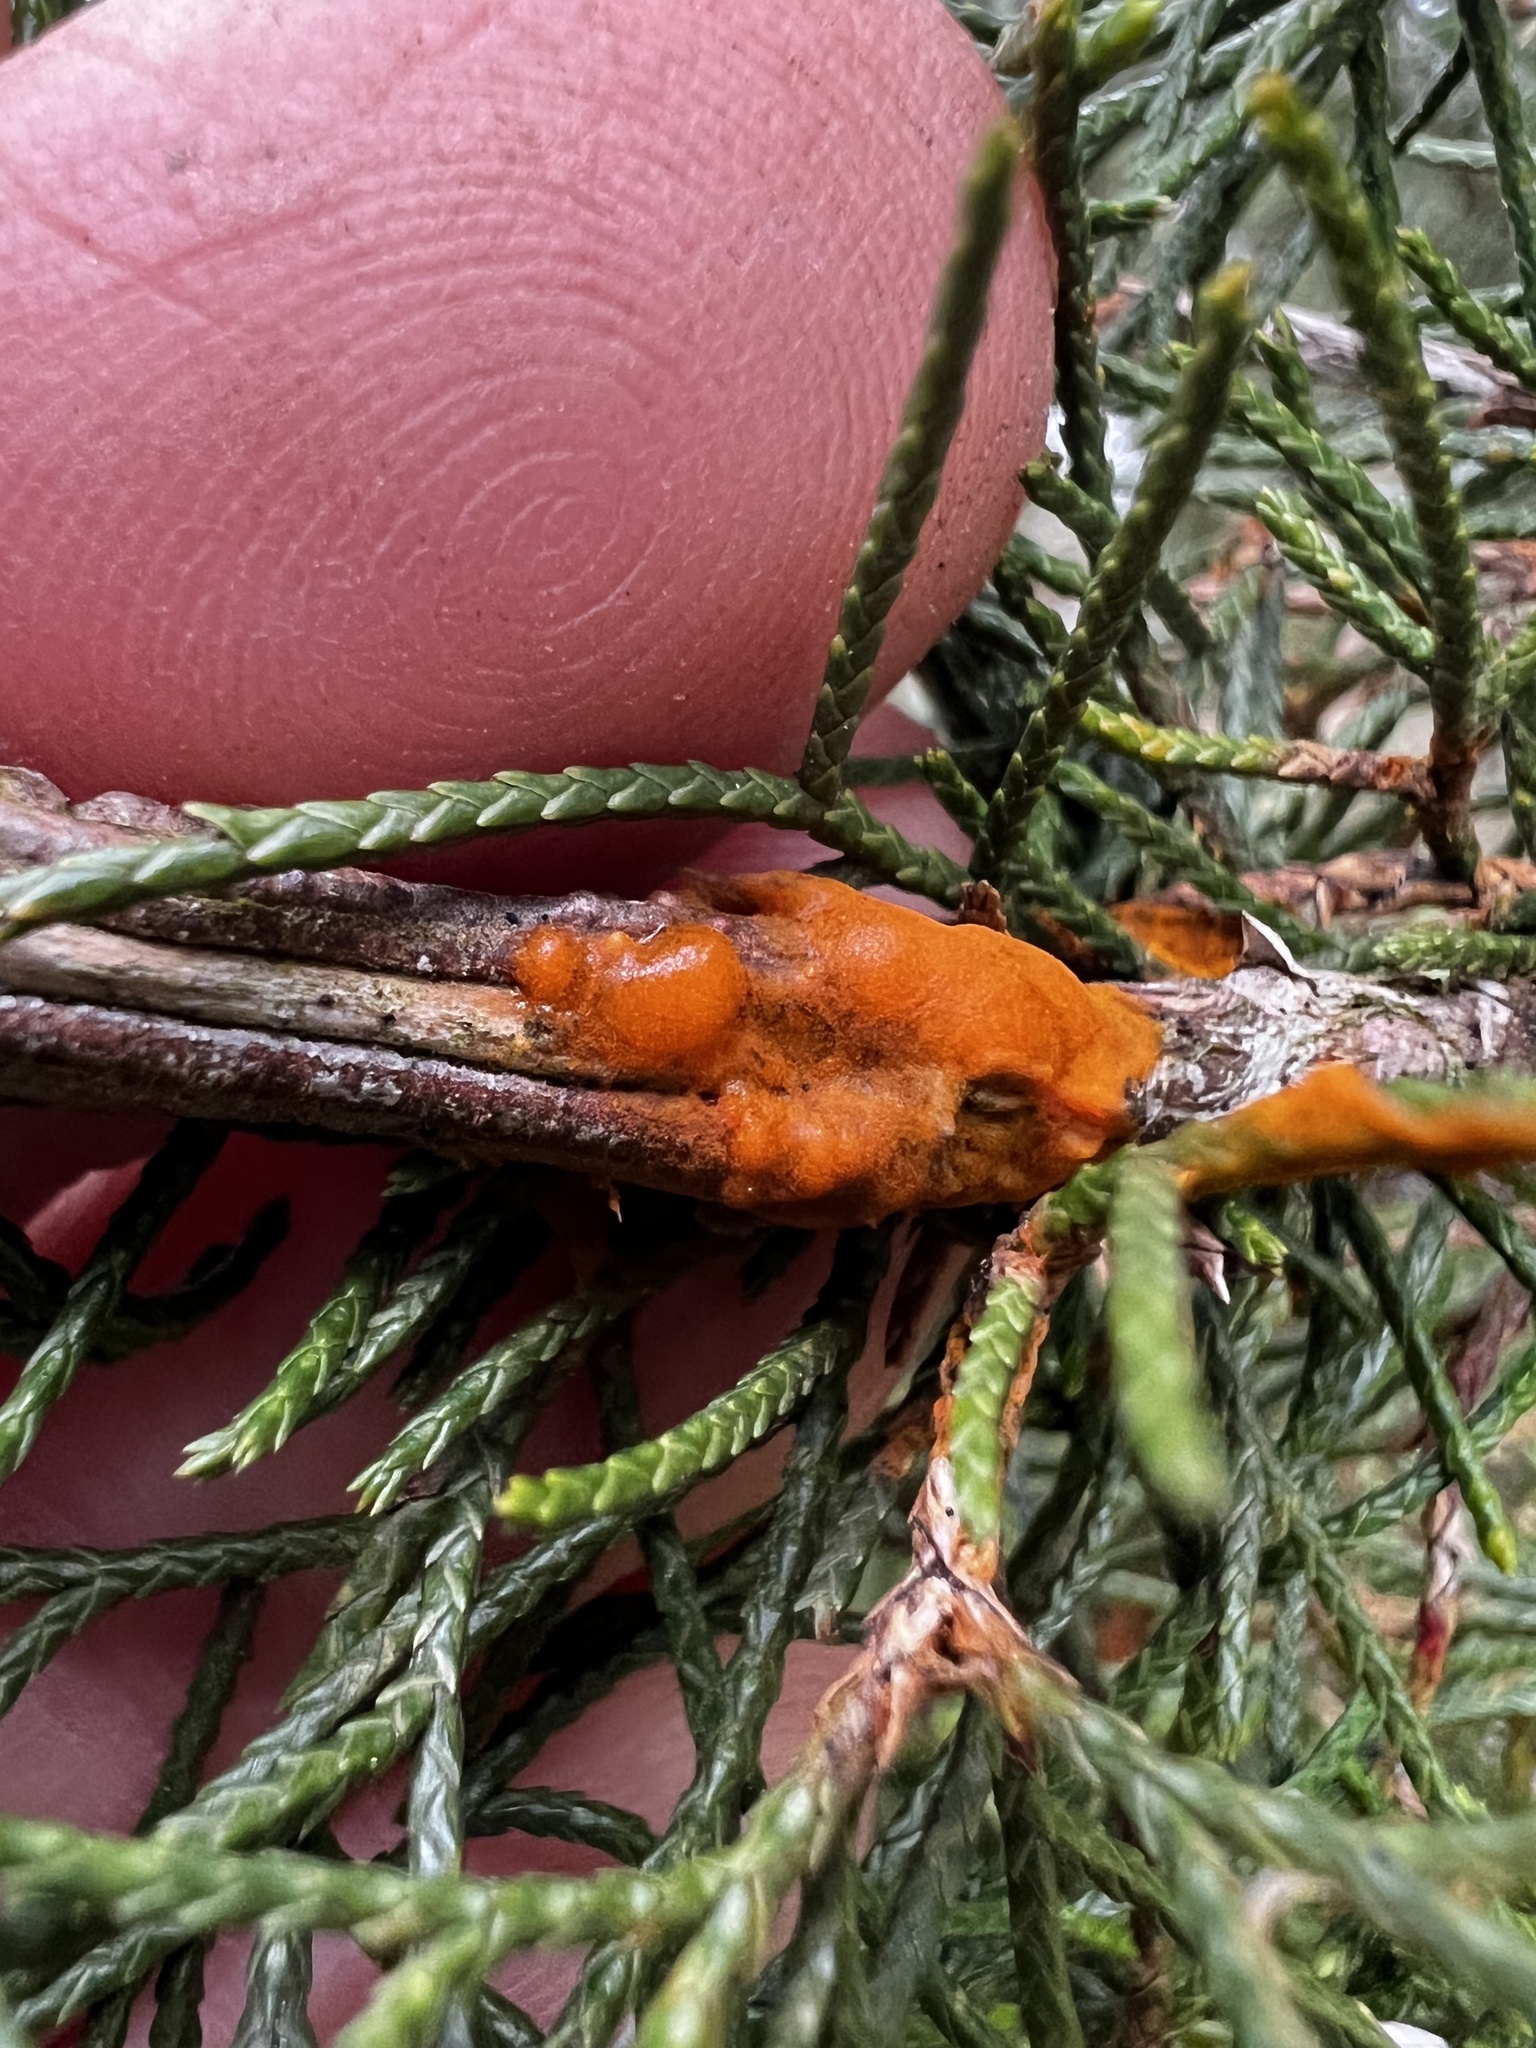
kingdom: Fungi
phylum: Basidiomycota
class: Pucciniomycetes
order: Pucciniales
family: Gymnosporangiaceae
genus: Gymnosporangium
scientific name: Gymnosporangium clavipes
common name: Quince rust
